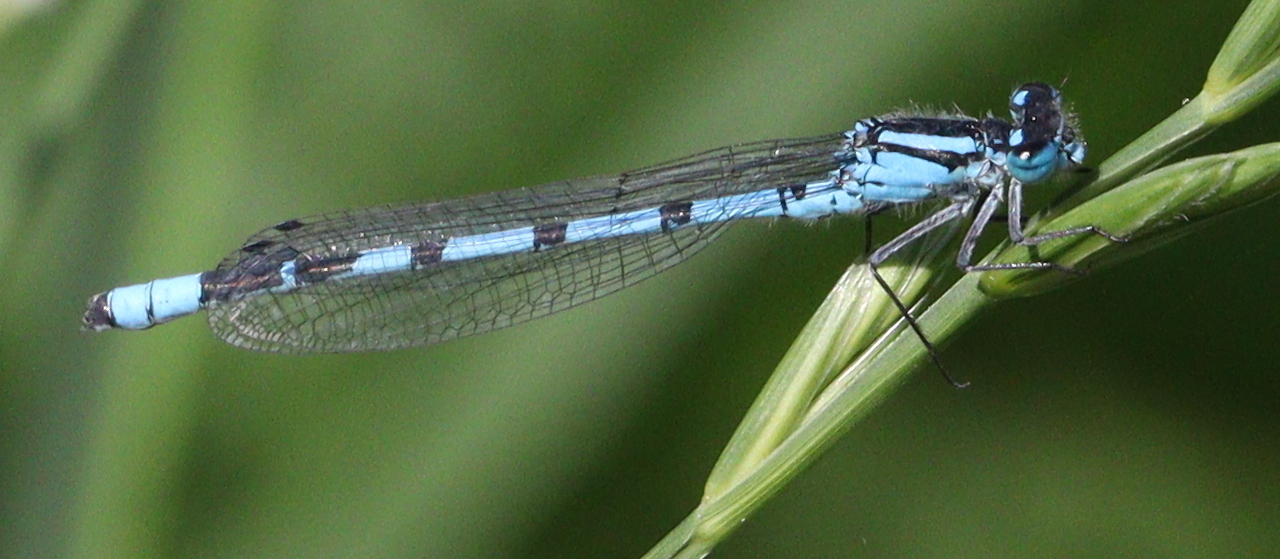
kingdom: Animalia
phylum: Arthropoda
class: Insecta
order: Odonata
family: Coenagrionidae
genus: Enallagma
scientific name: Enallagma cyathigerum
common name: Common blue damselfly
